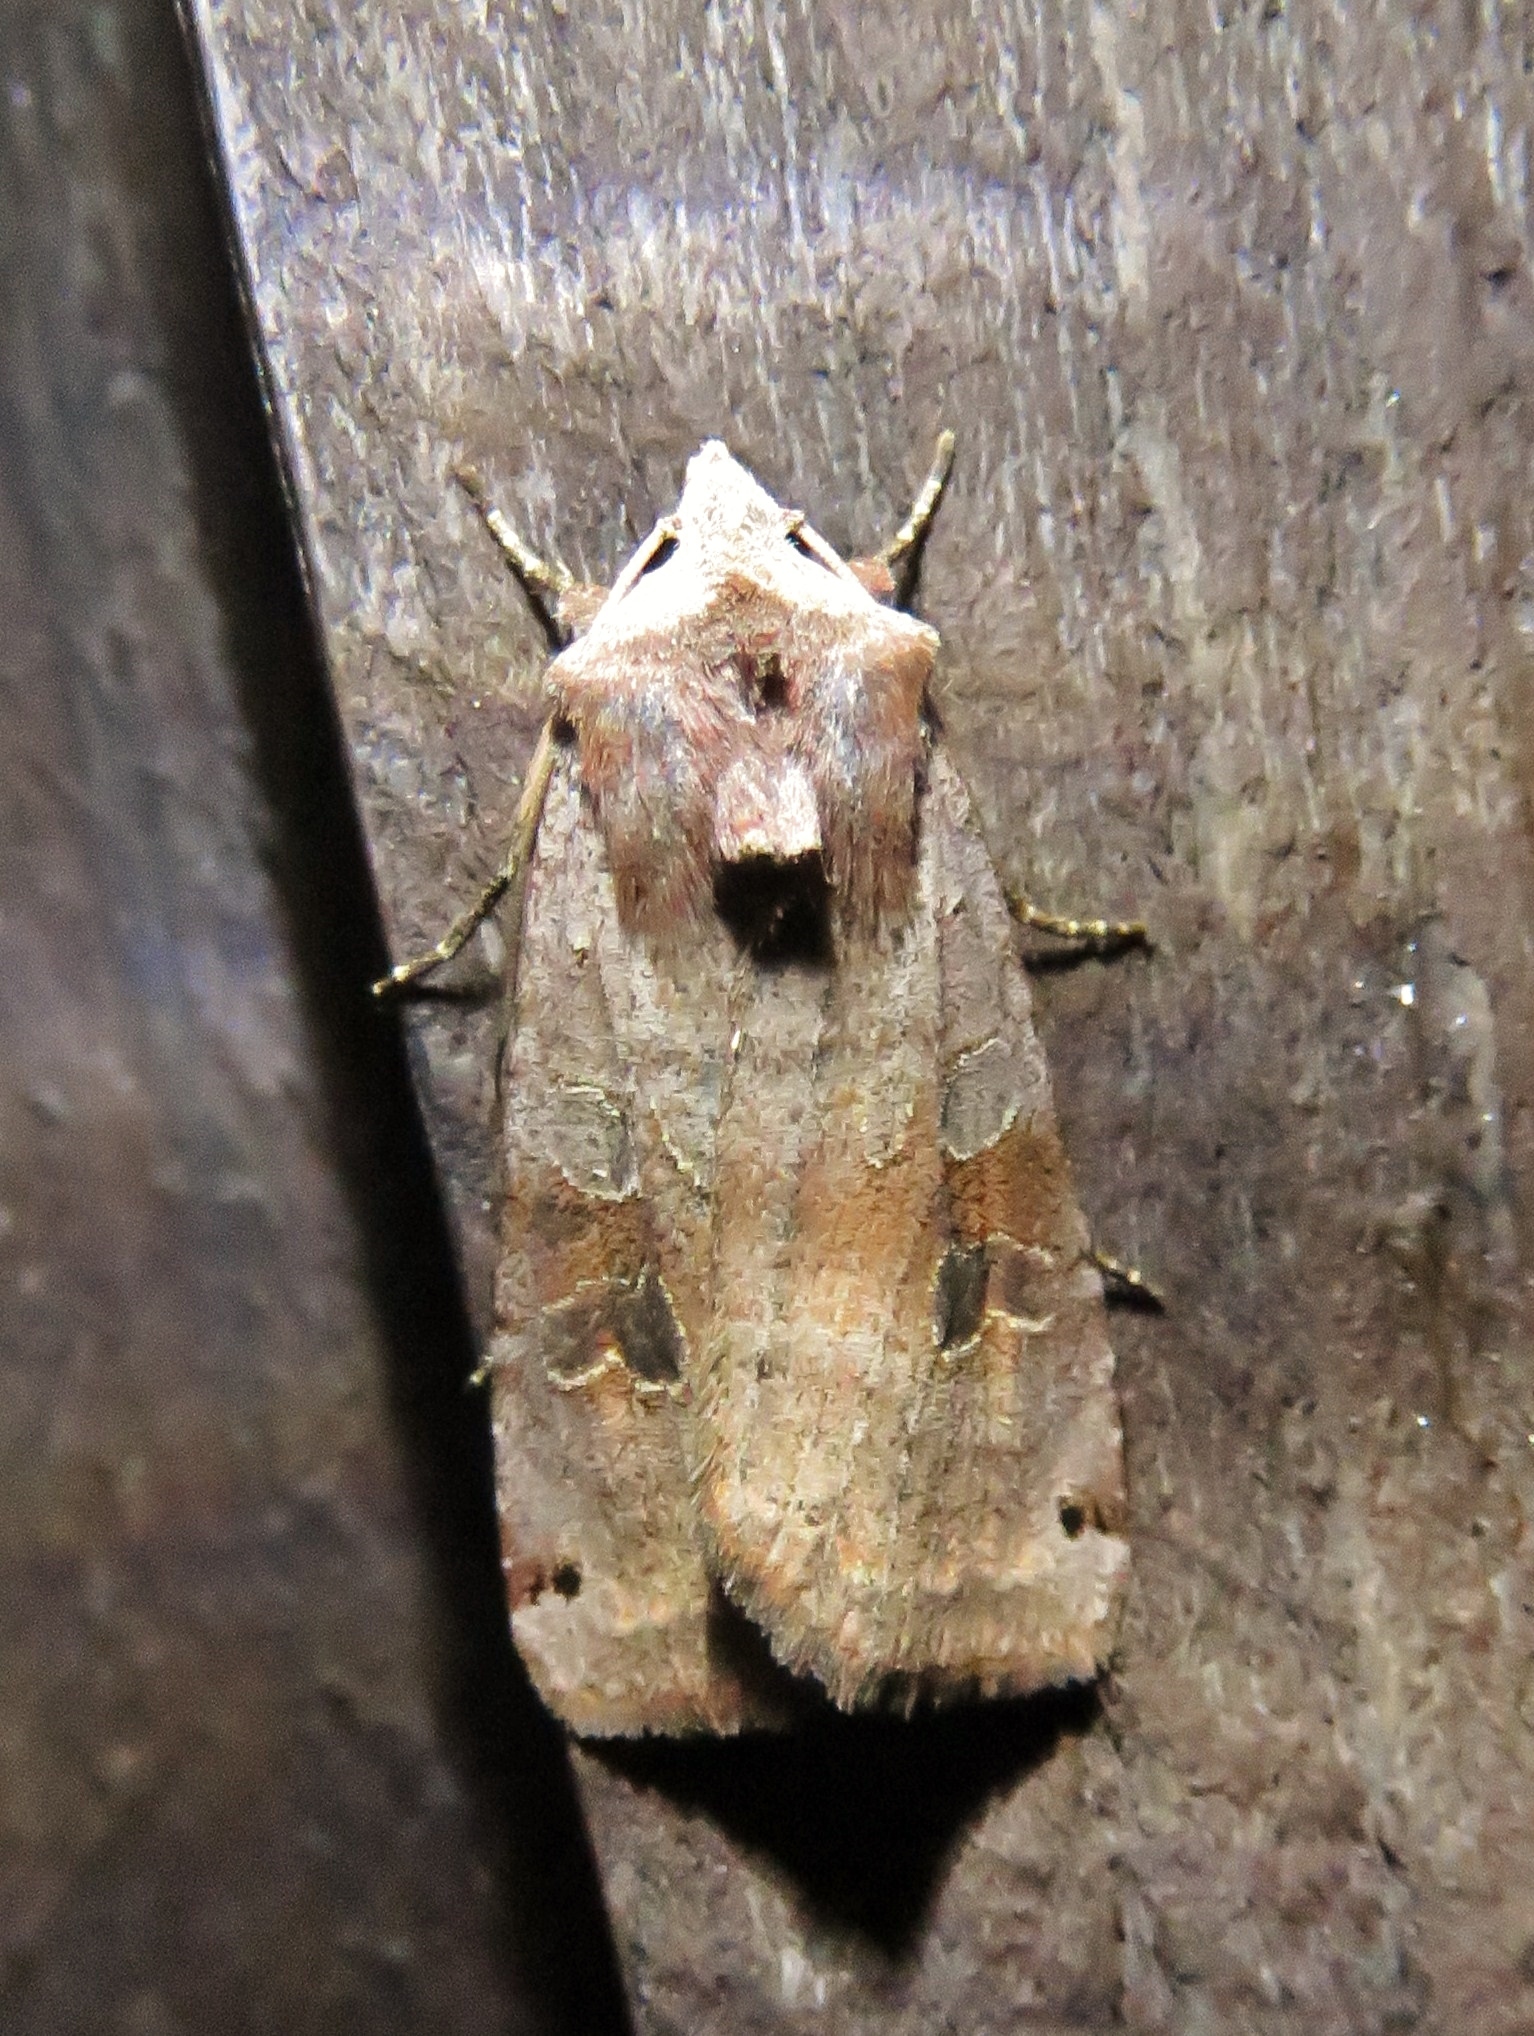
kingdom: Animalia
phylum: Arthropoda
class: Insecta
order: Lepidoptera
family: Noctuidae
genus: Xestia
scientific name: Xestia baja
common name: Dotted clay
